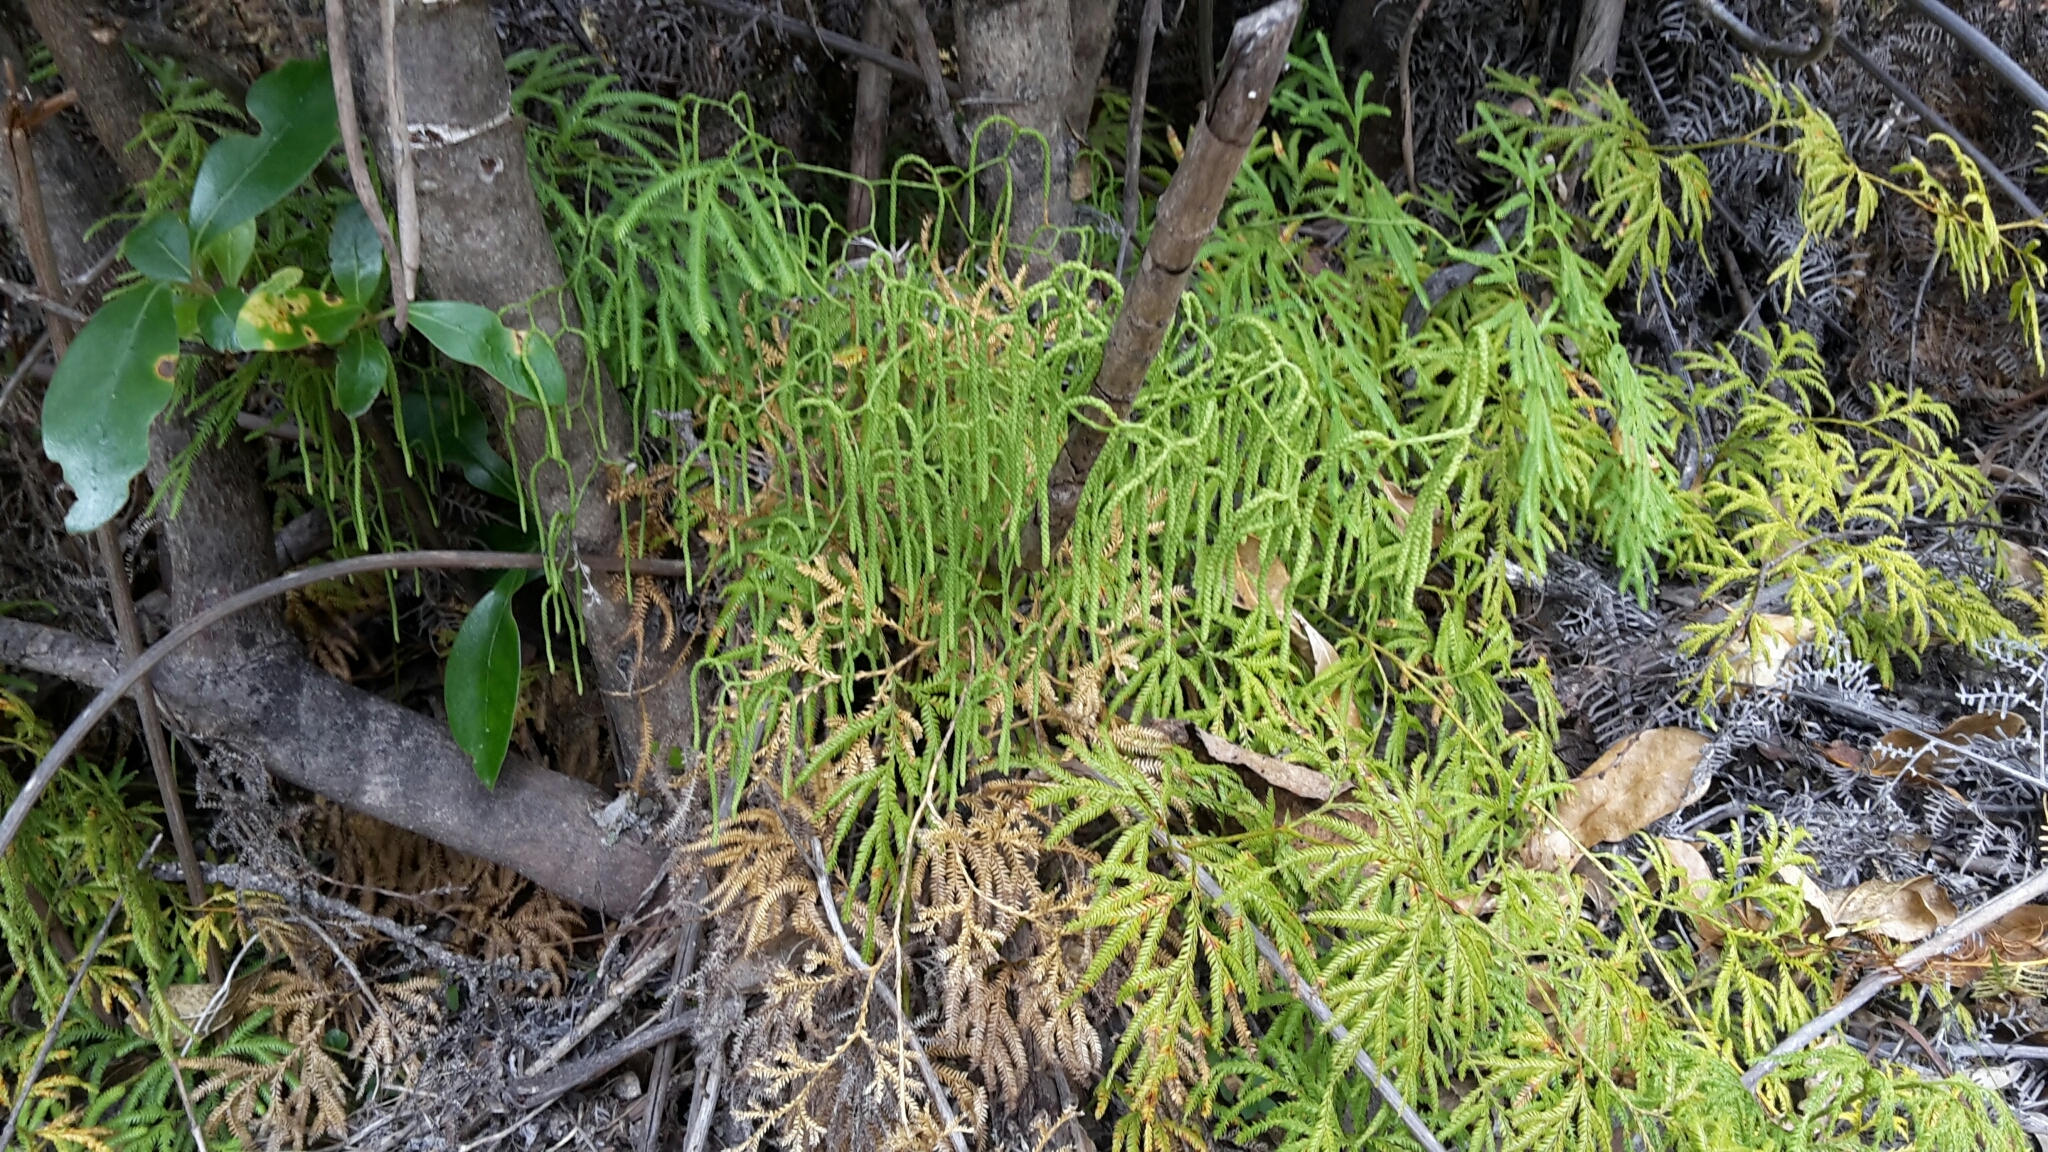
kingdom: Plantae
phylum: Tracheophyta
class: Lycopodiopsida
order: Lycopodiales
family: Lycopodiaceae
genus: Lycopodium
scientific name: Lycopodium volubile
